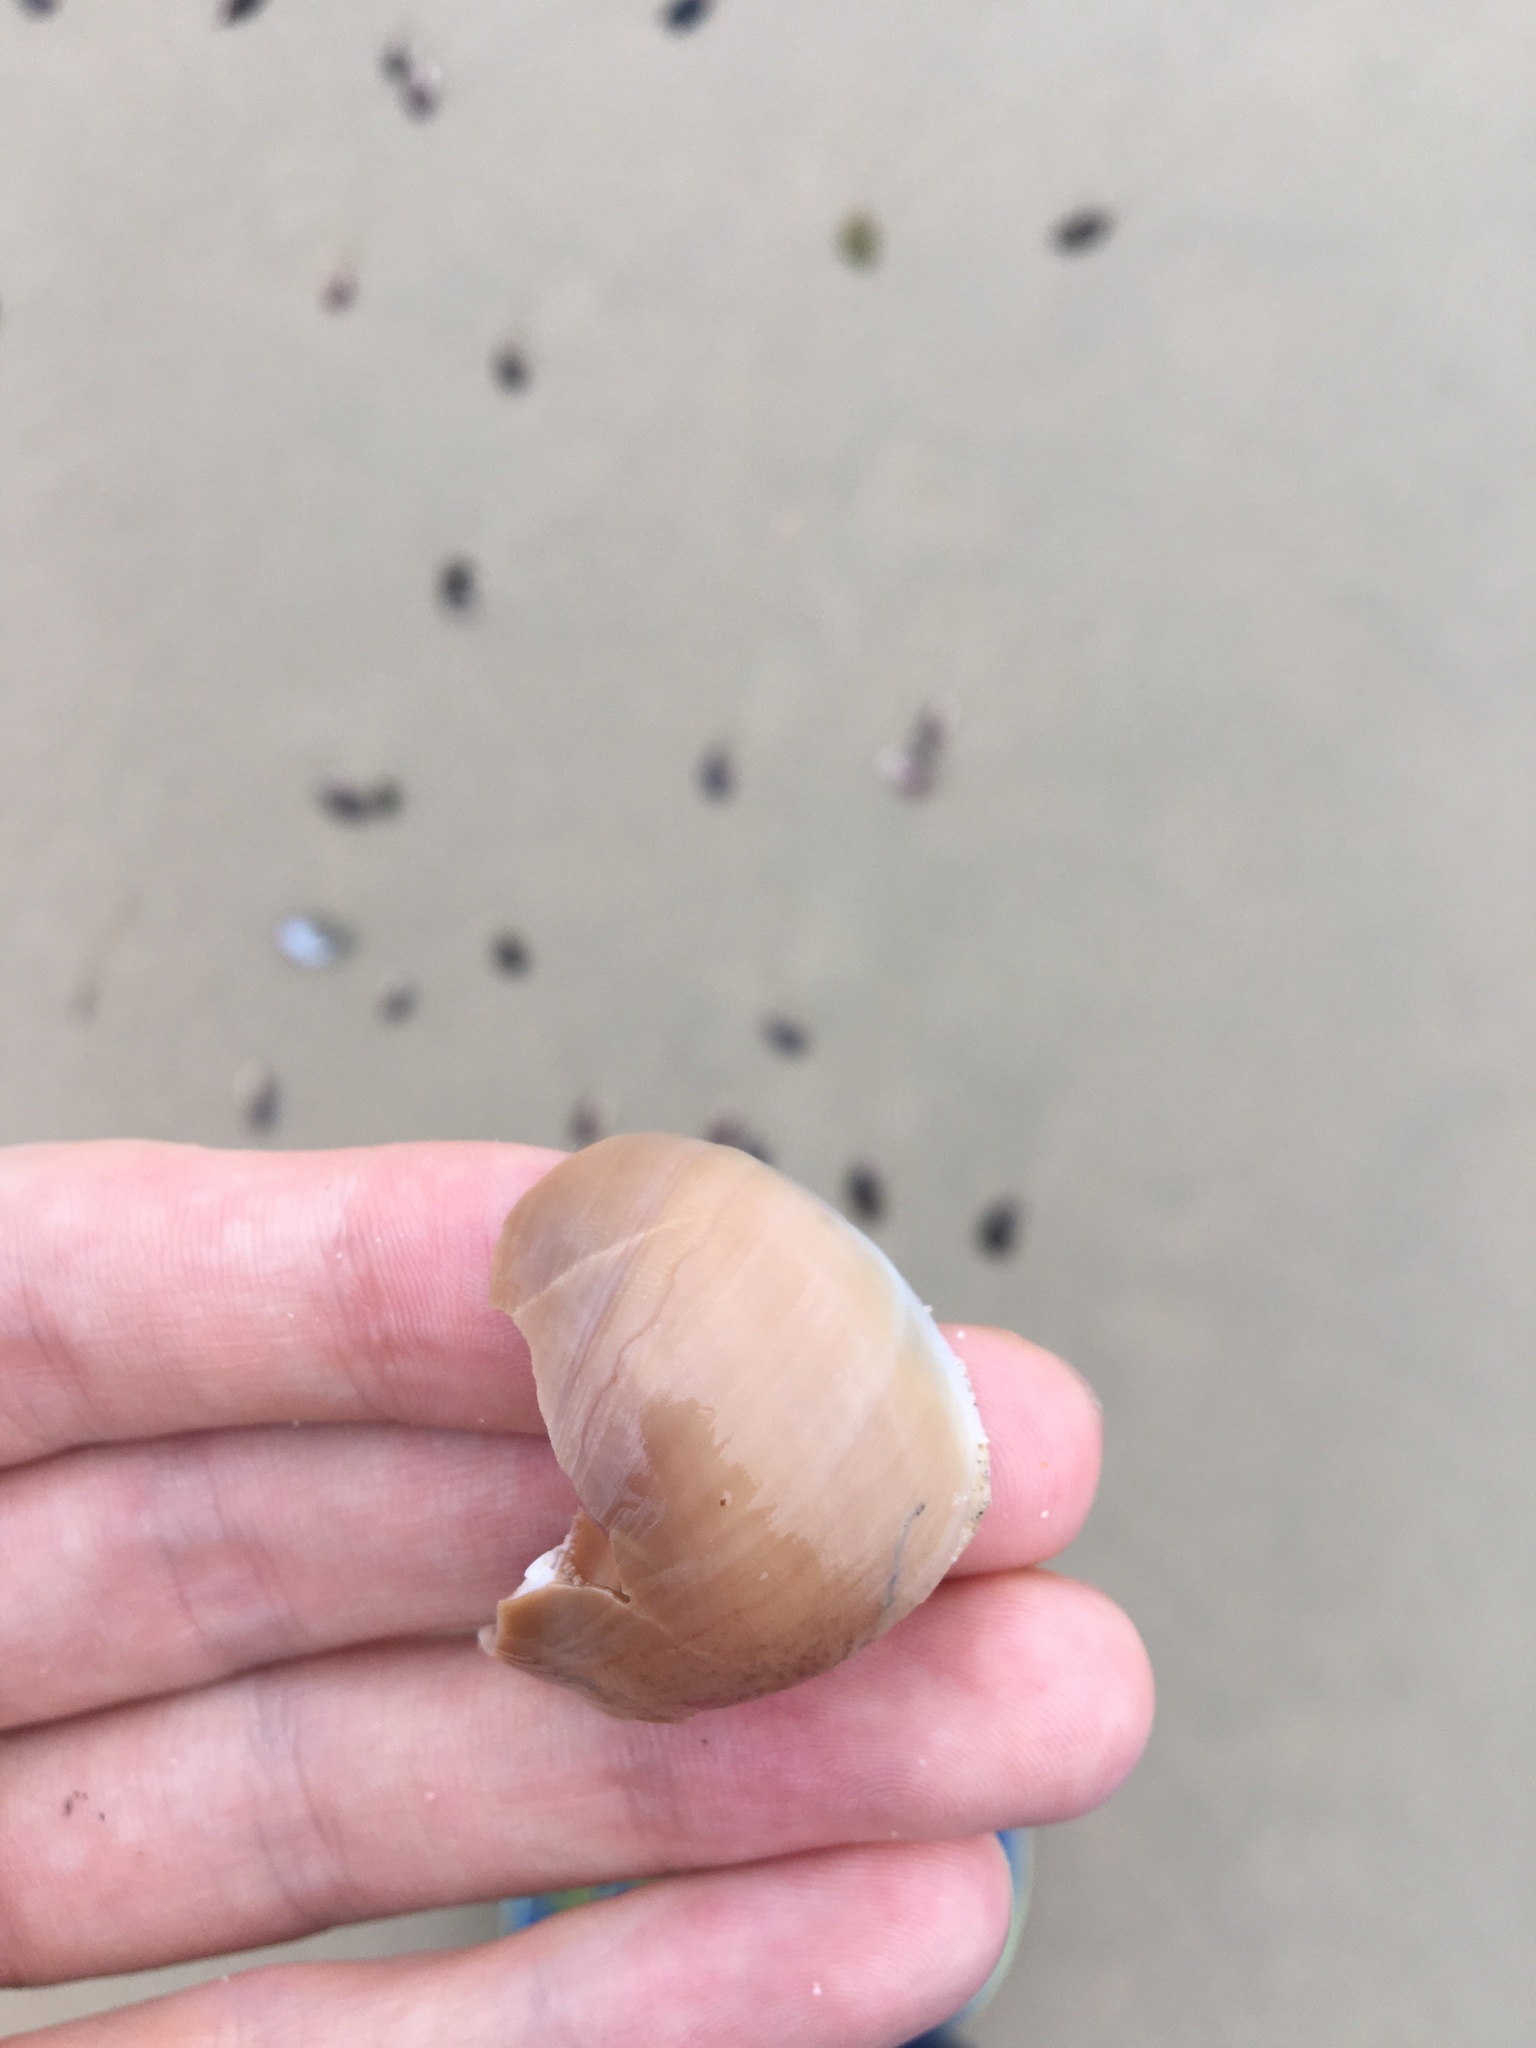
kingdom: Animalia
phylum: Mollusca
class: Gastropoda
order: Littorinimorpha
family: Naticidae
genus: Neverita
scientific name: Neverita didyma
